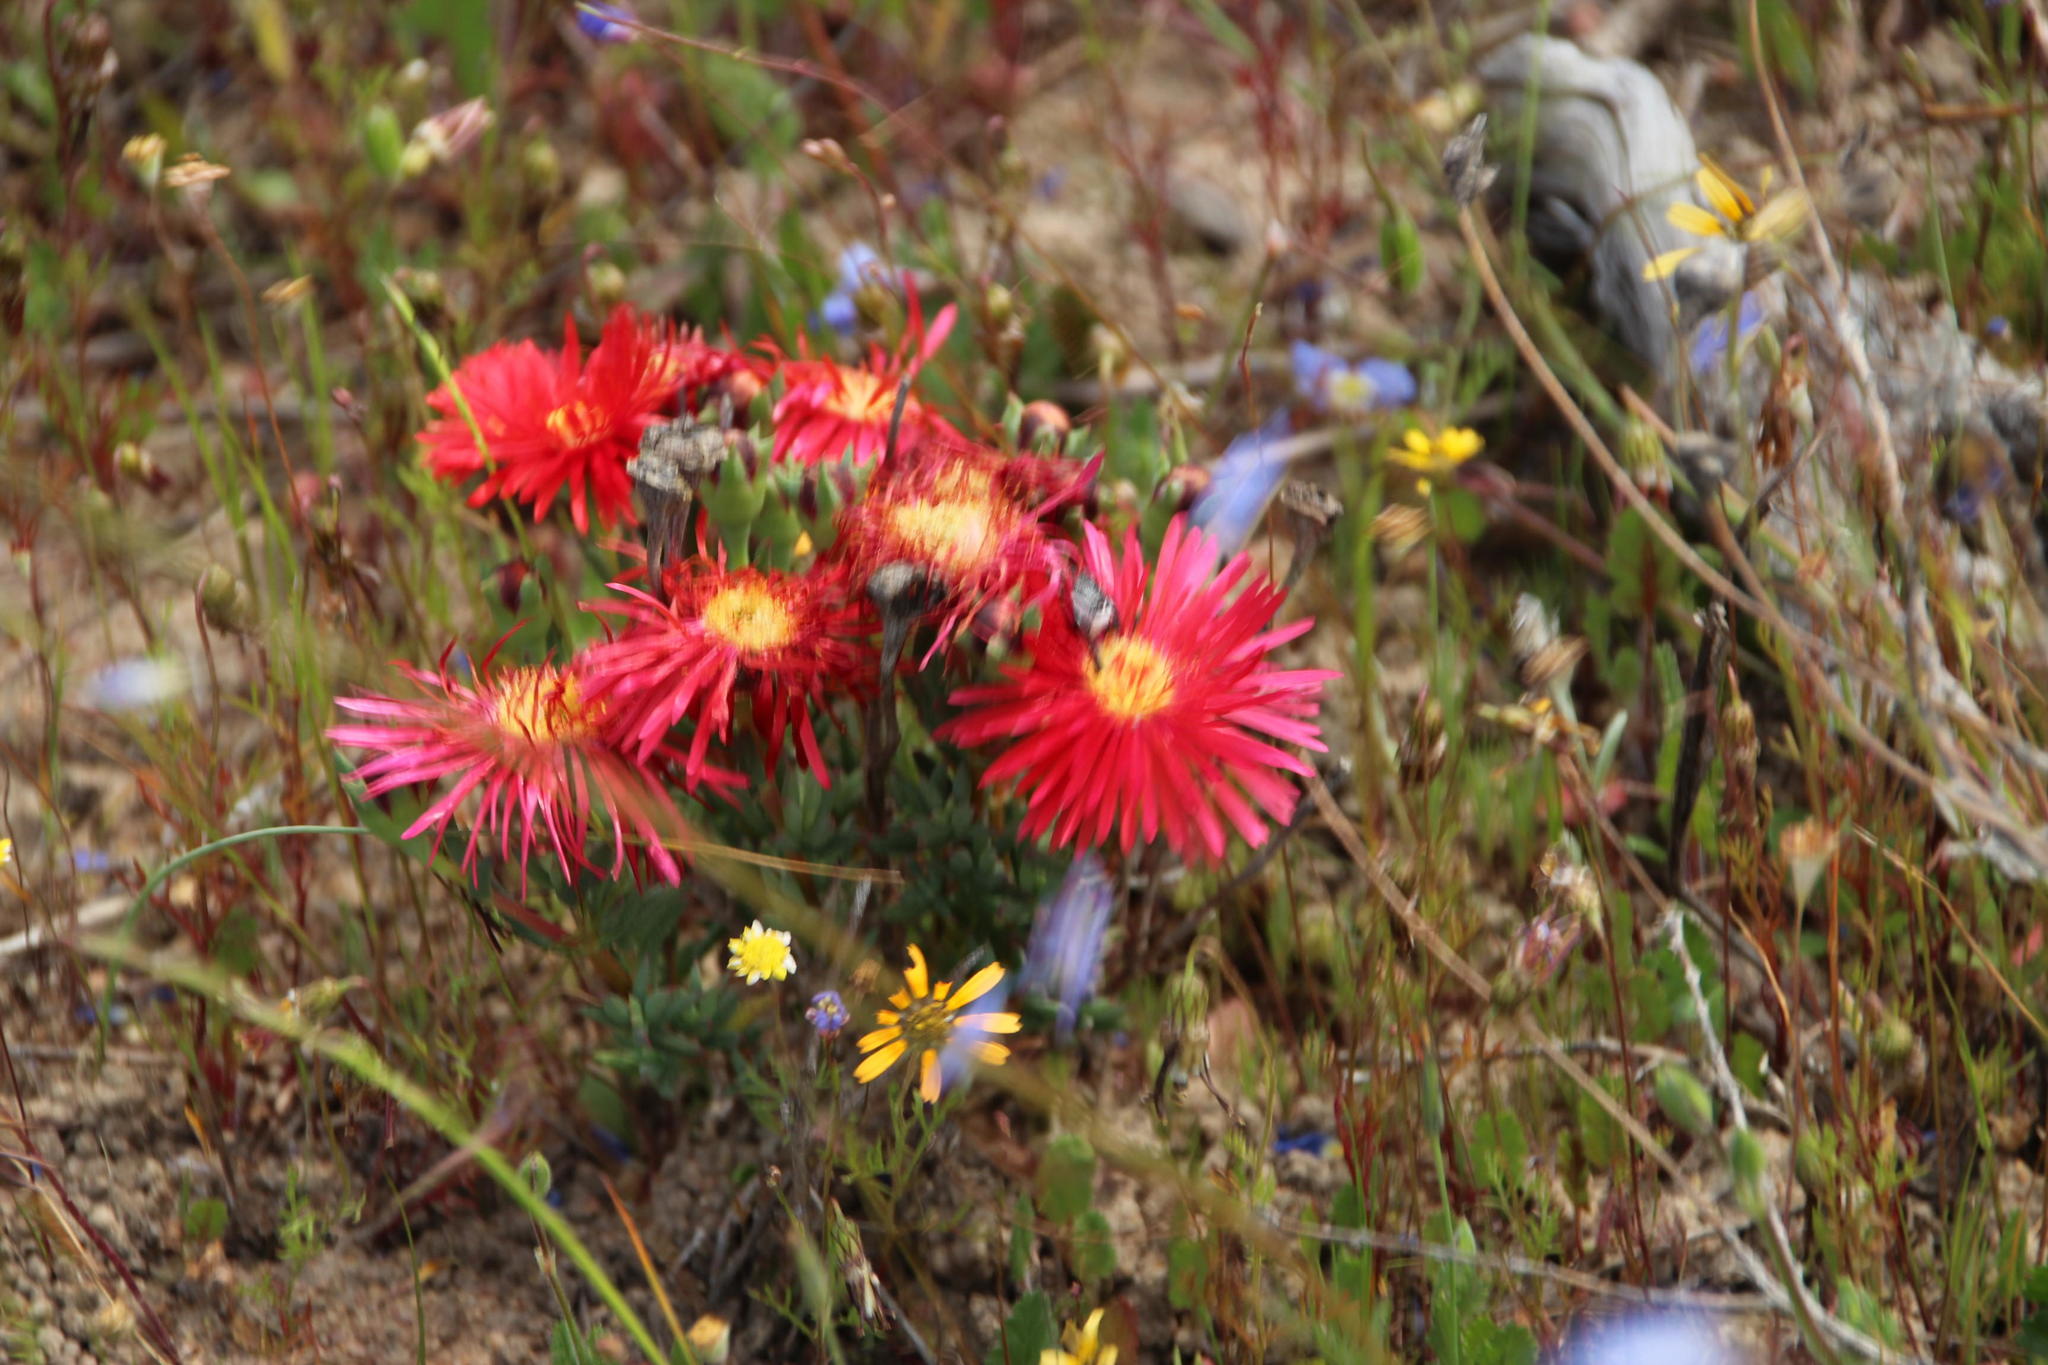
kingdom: Plantae
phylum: Tracheophyta
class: Magnoliopsida
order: Caryophyllales
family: Aizoaceae
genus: Lampranthus
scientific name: Lampranthus coccineus
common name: Redflush
